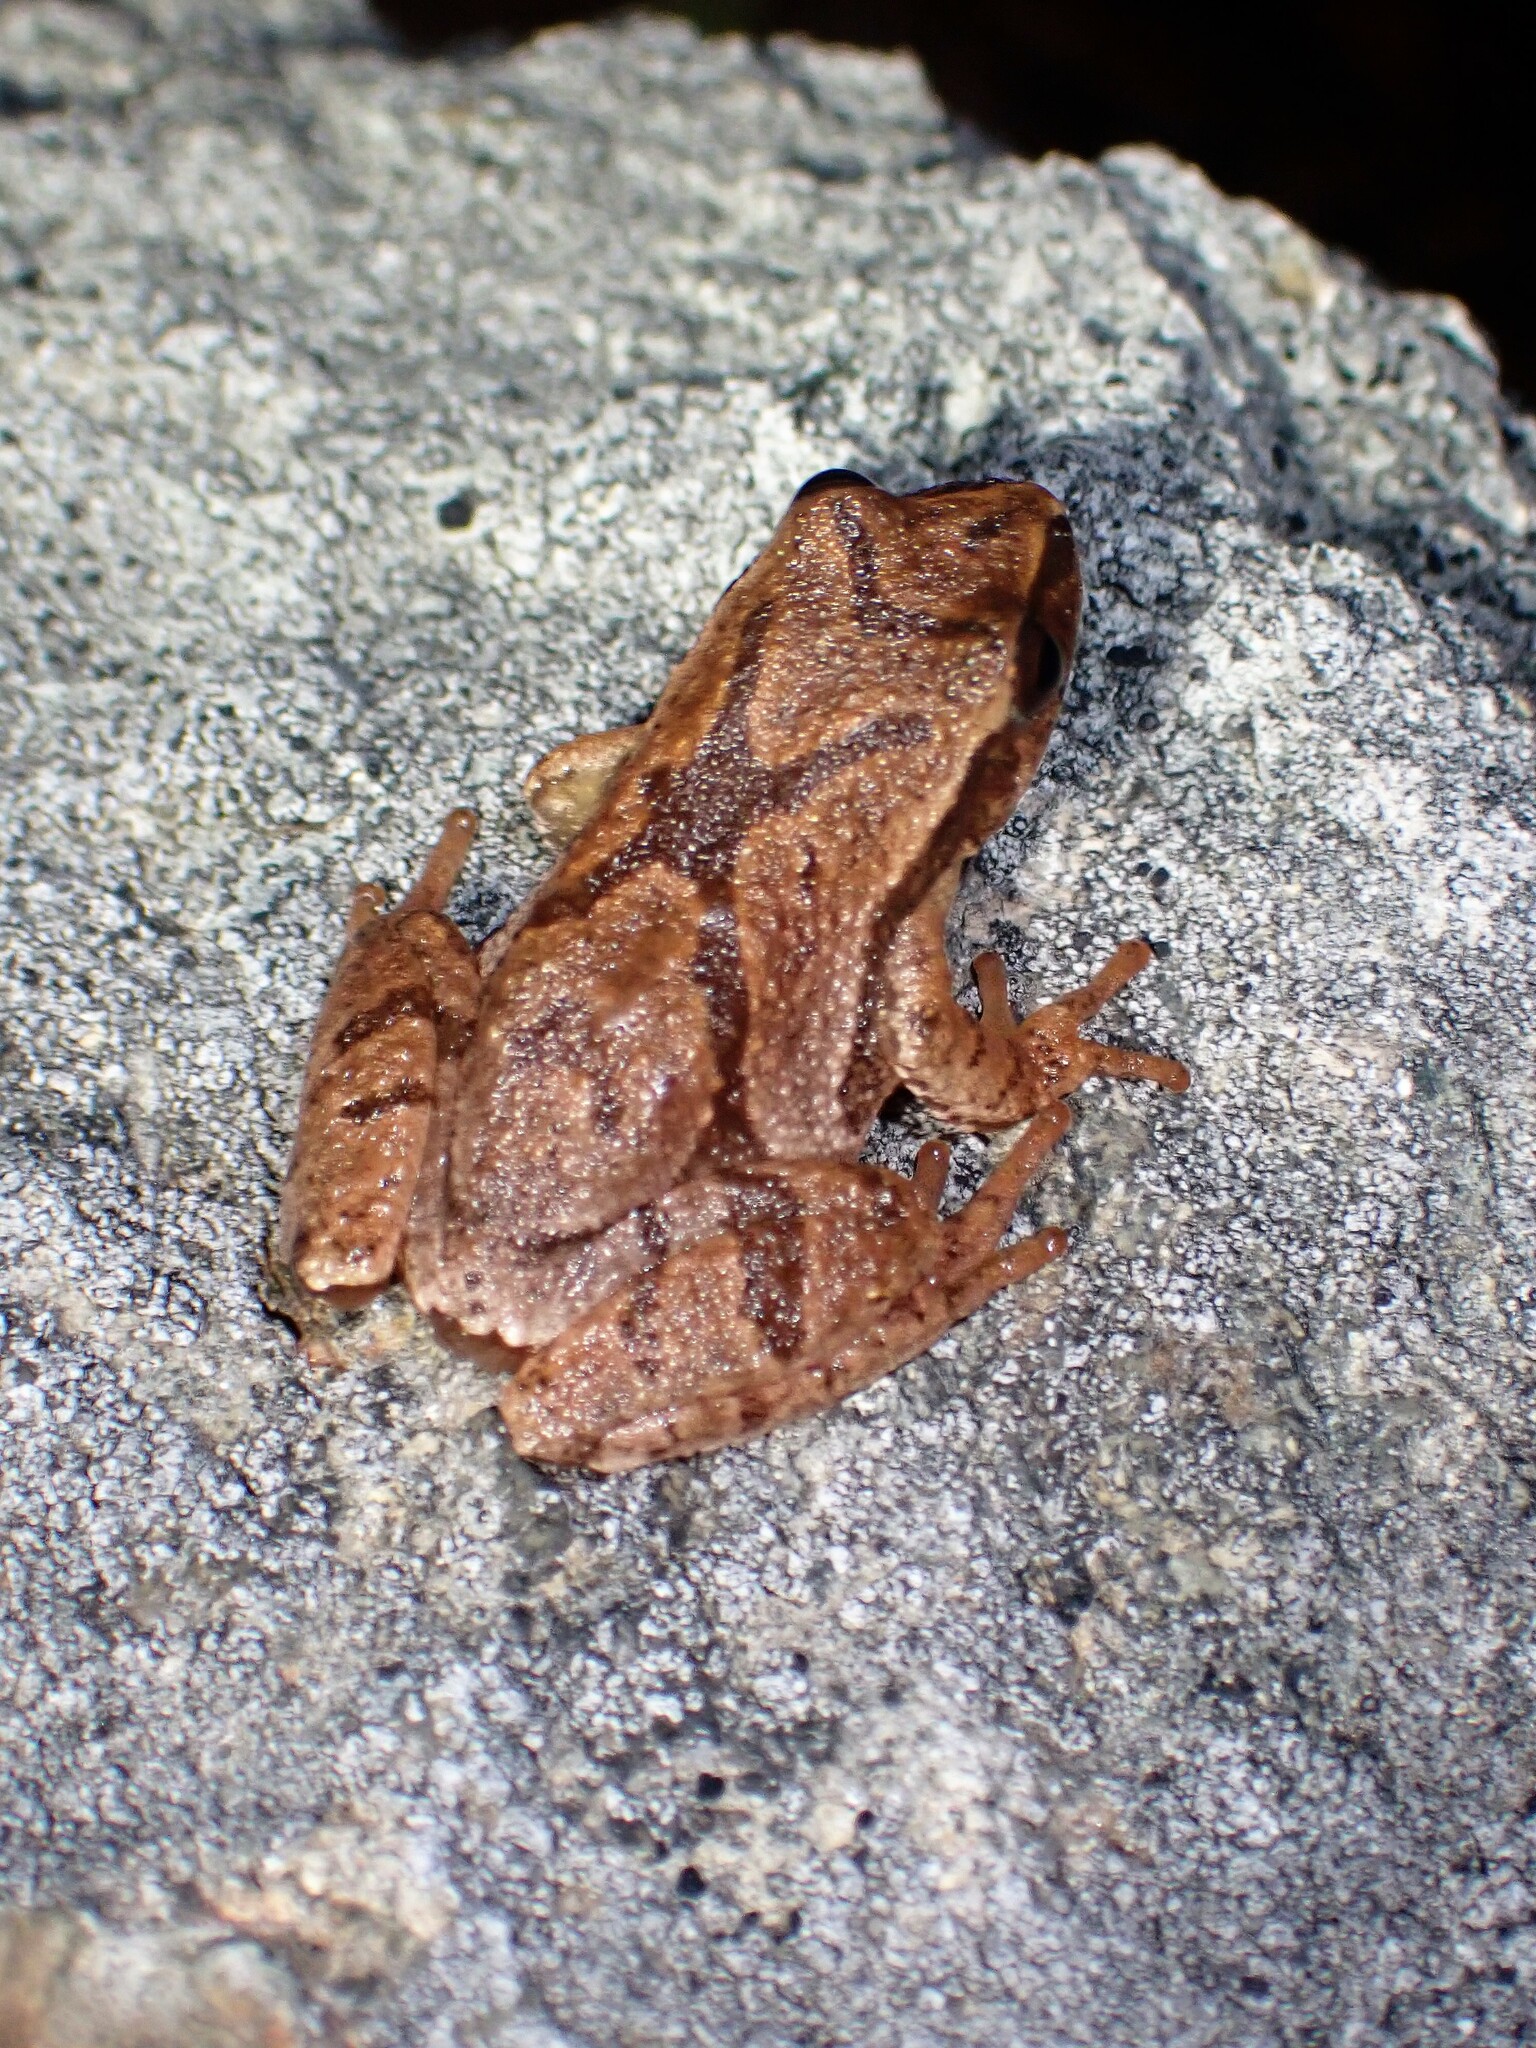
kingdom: Animalia
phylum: Chordata
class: Amphibia
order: Anura
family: Hylidae
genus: Pseudacris
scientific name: Pseudacris crucifer
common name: Spring peeper
